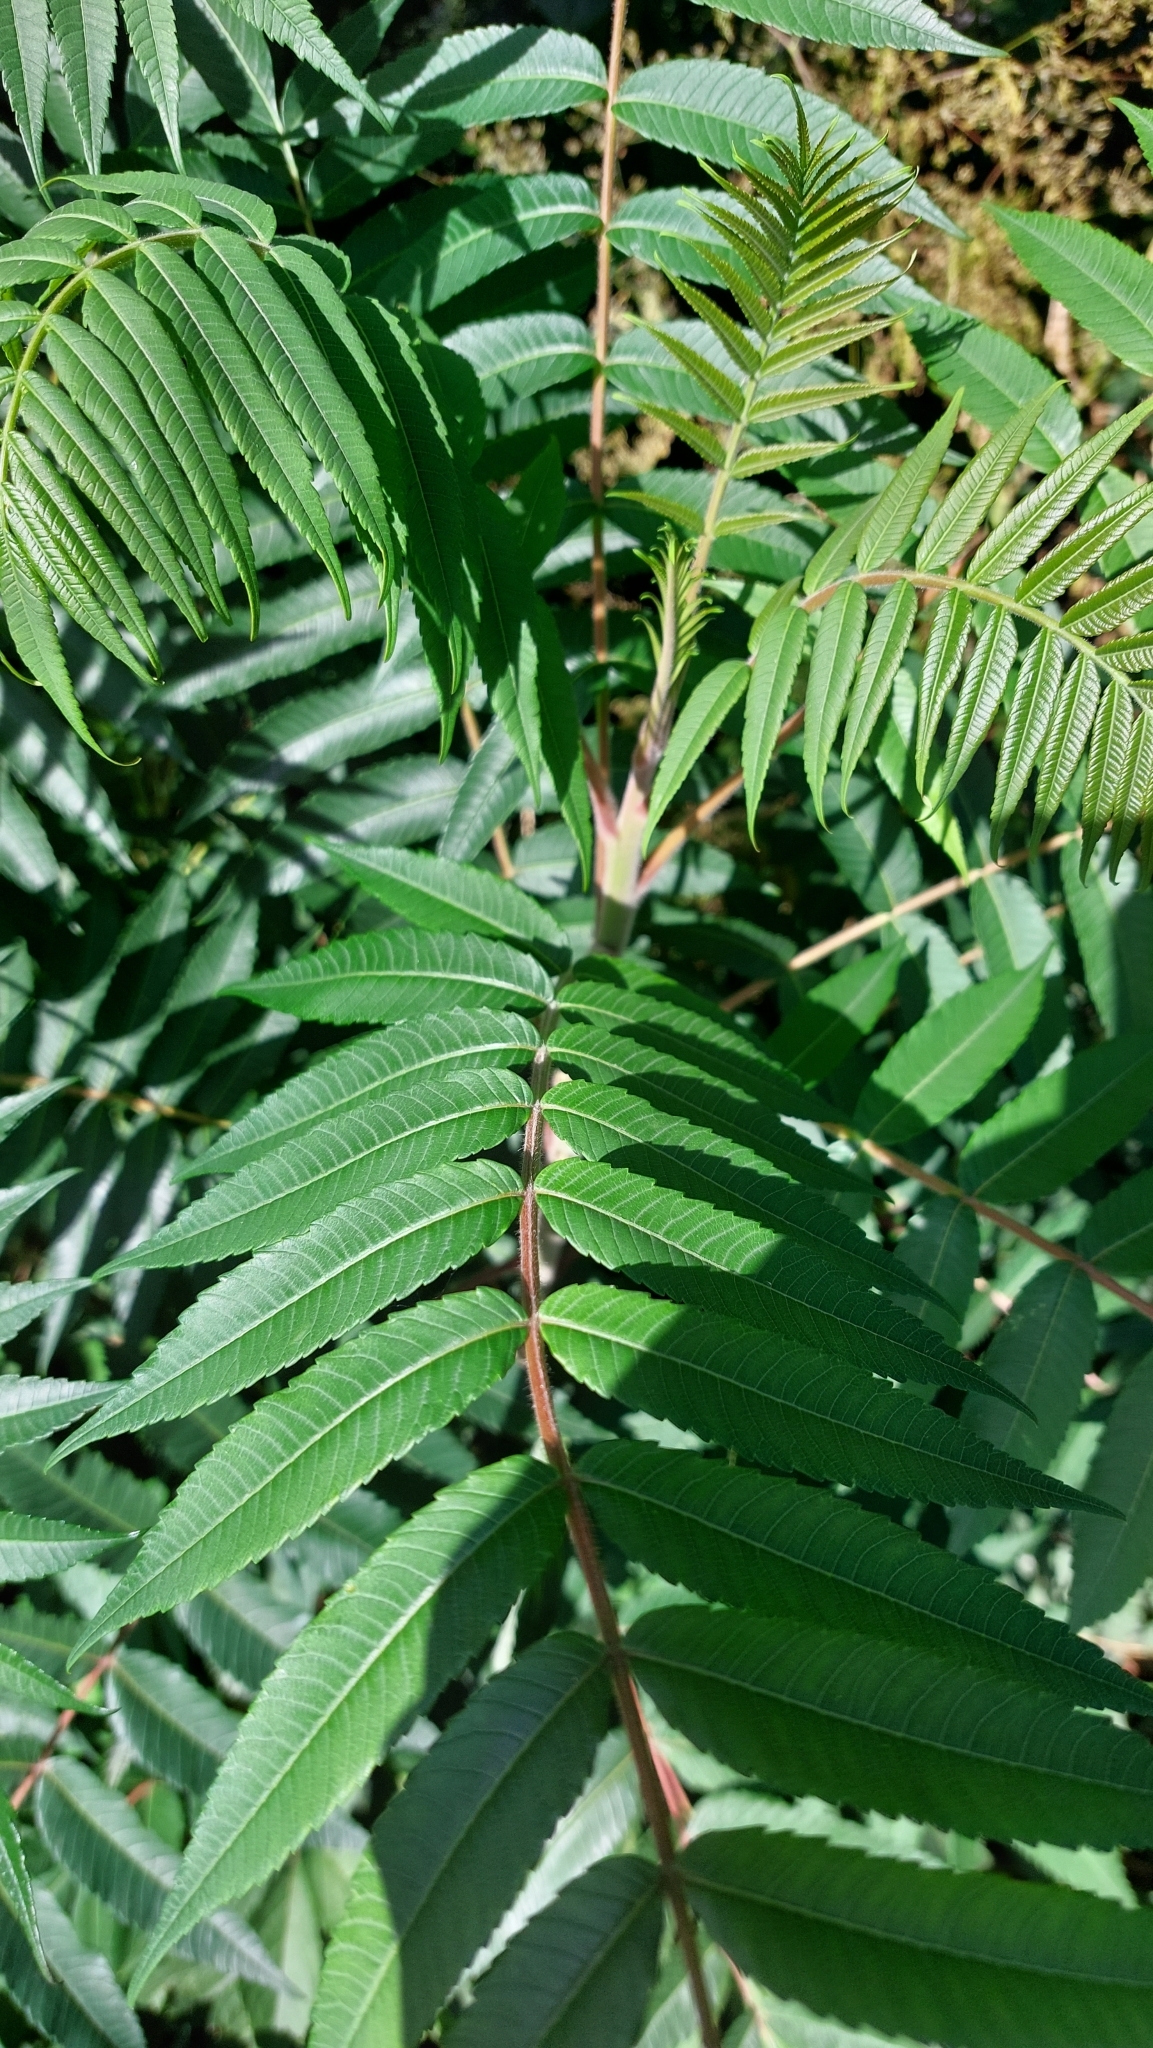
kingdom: Plantae
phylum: Tracheophyta
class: Magnoliopsida
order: Sapindales
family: Anacardiaceae
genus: Rhus
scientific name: Rhus typhina
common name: Staghorn sumac
